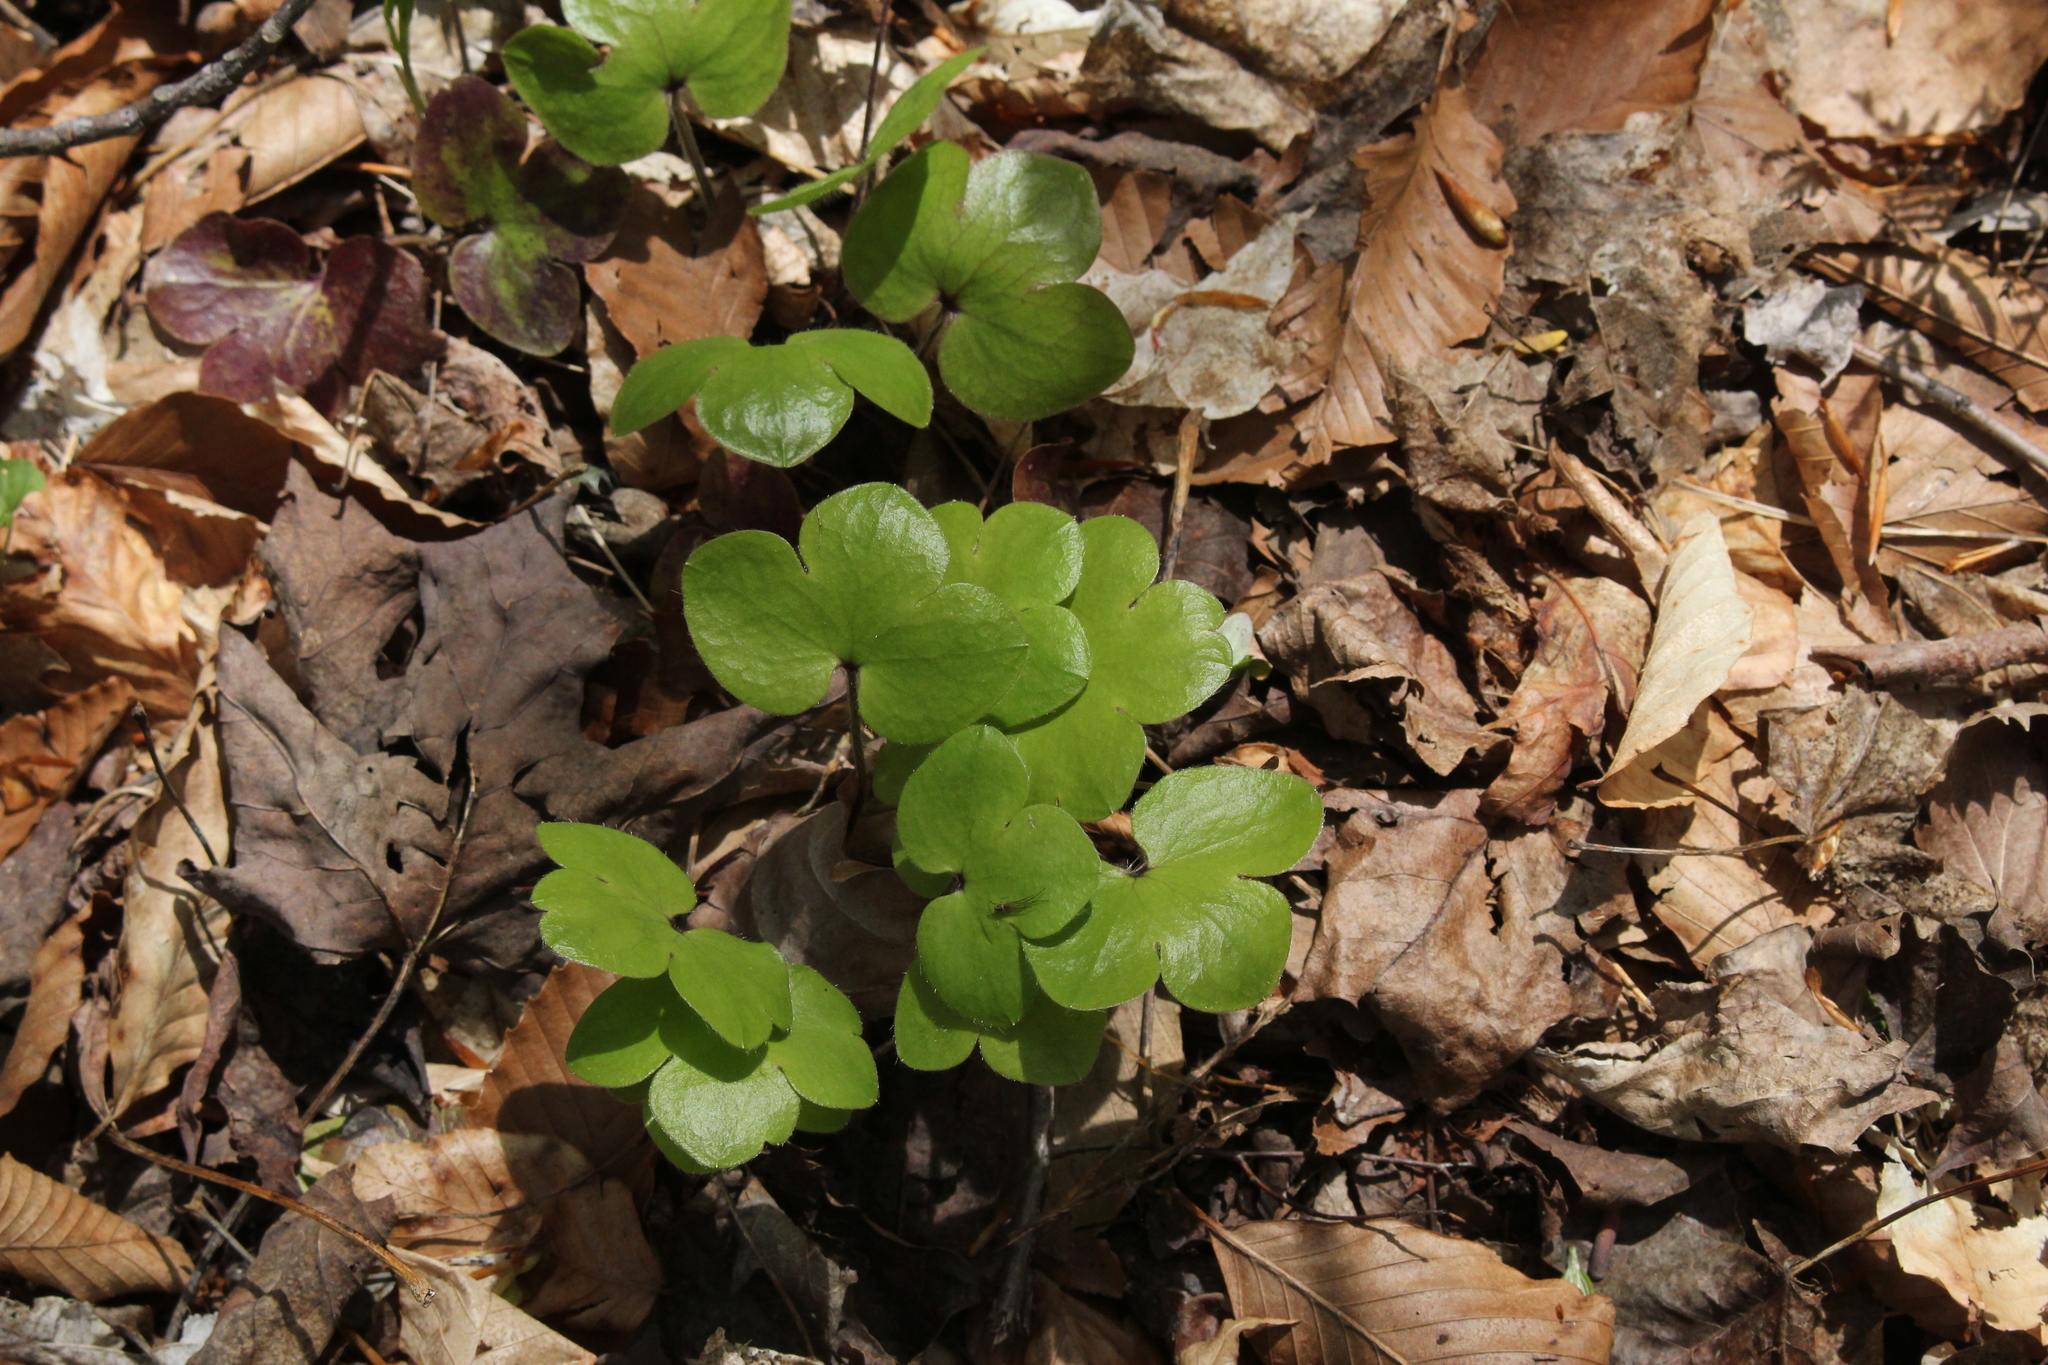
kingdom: Plantae
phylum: Tracheophyta
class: Magnoliopsida
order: Ranunculales
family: Ranunculaceae
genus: Hepatica
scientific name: Hepatica americana
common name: American hepatica
